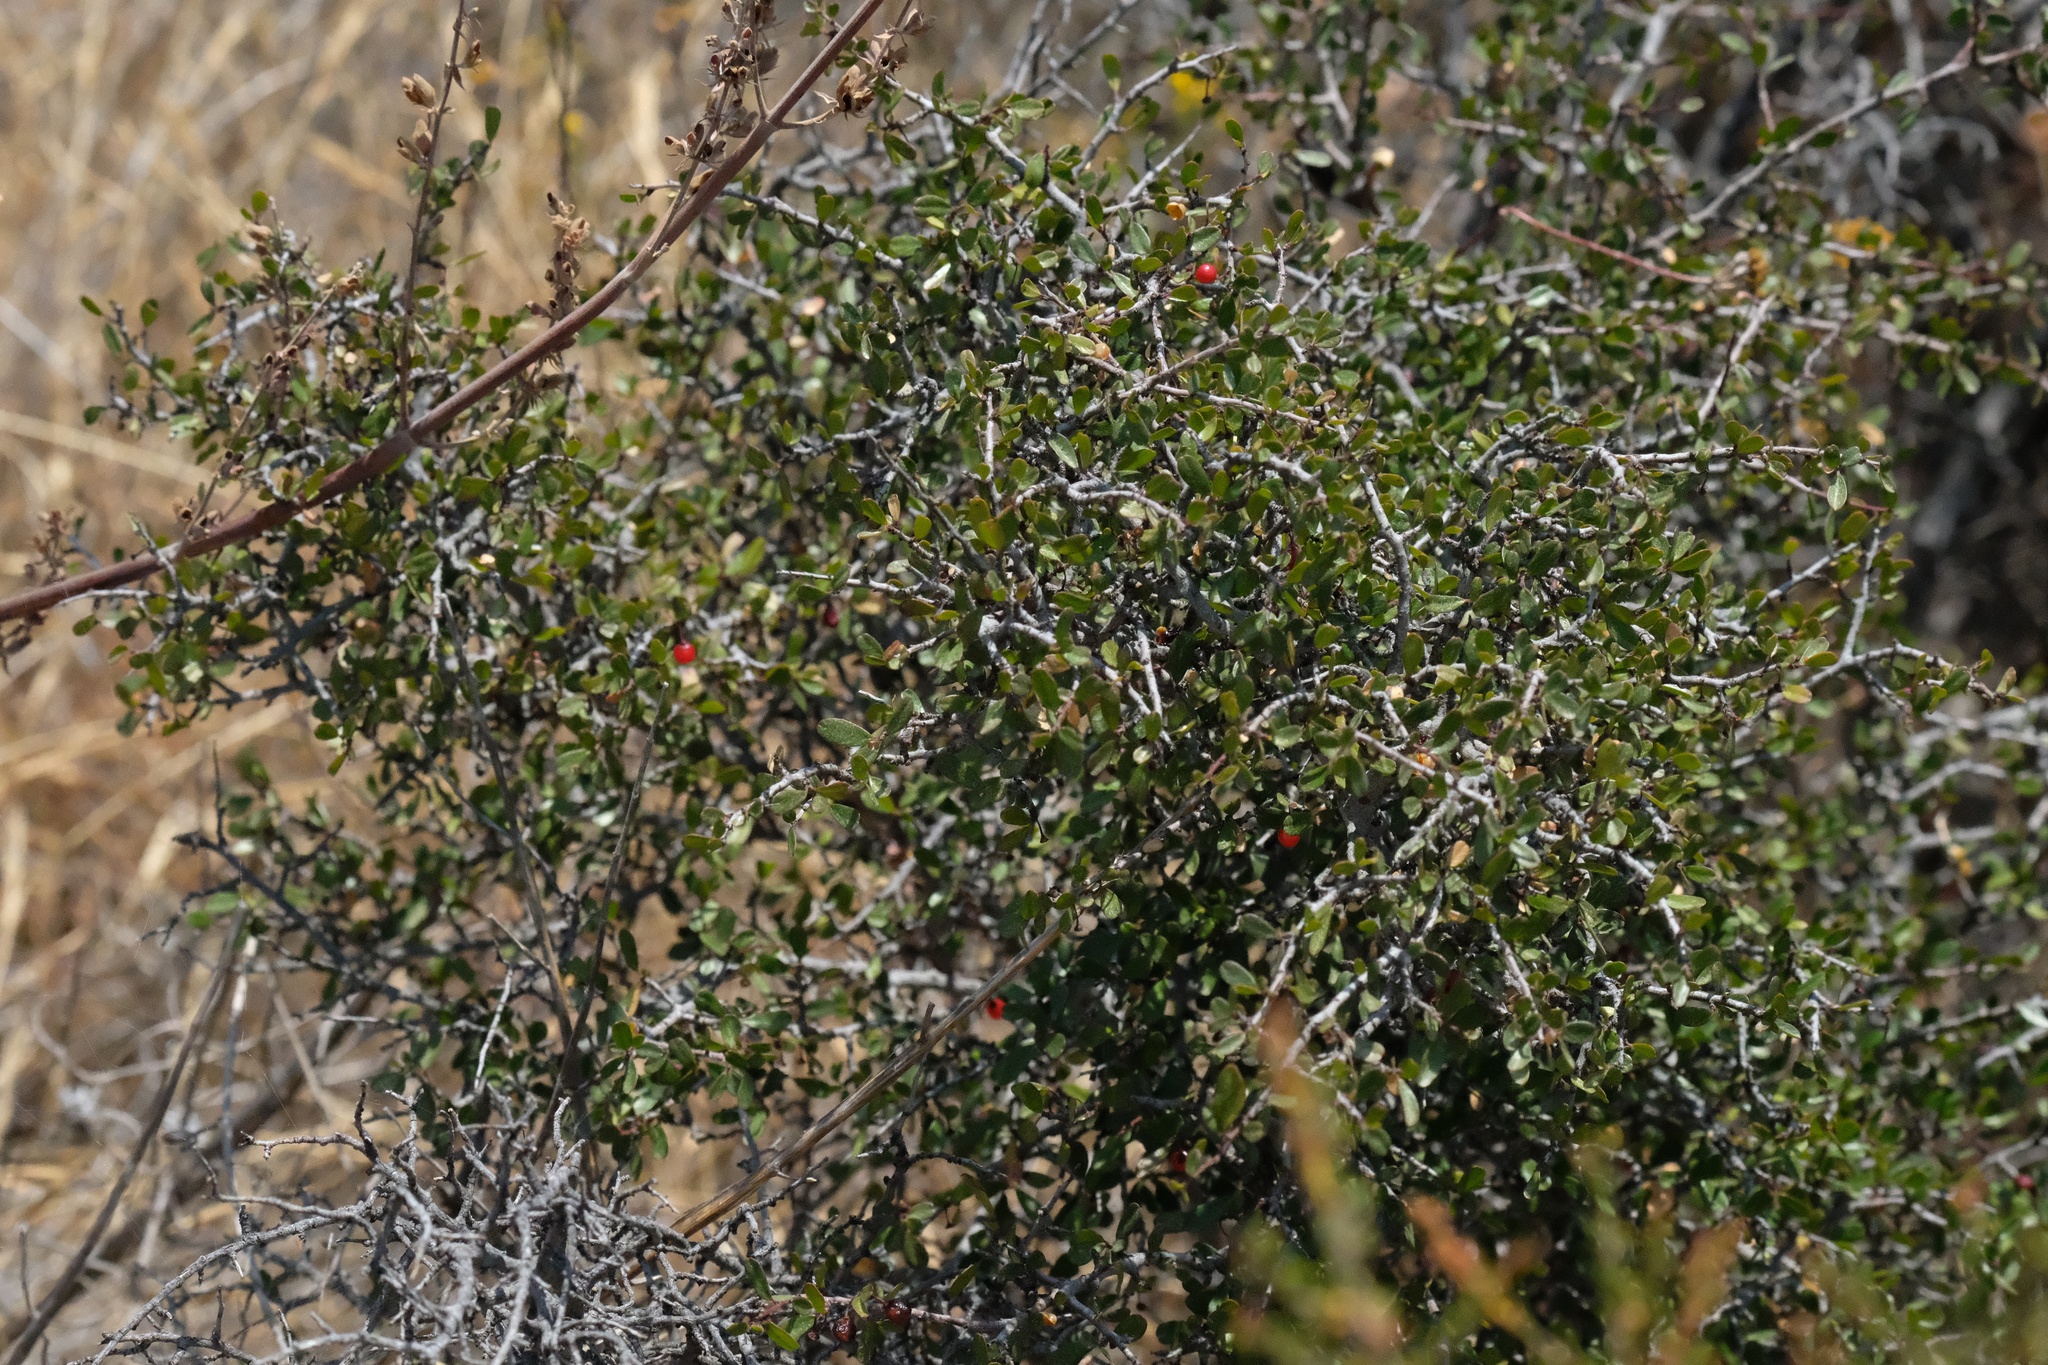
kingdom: Plantae
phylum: Tracheophyta
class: Magnoliopsida
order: Rosales
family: Rhamnaceae
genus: Endotropis
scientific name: Endotropis crocea
